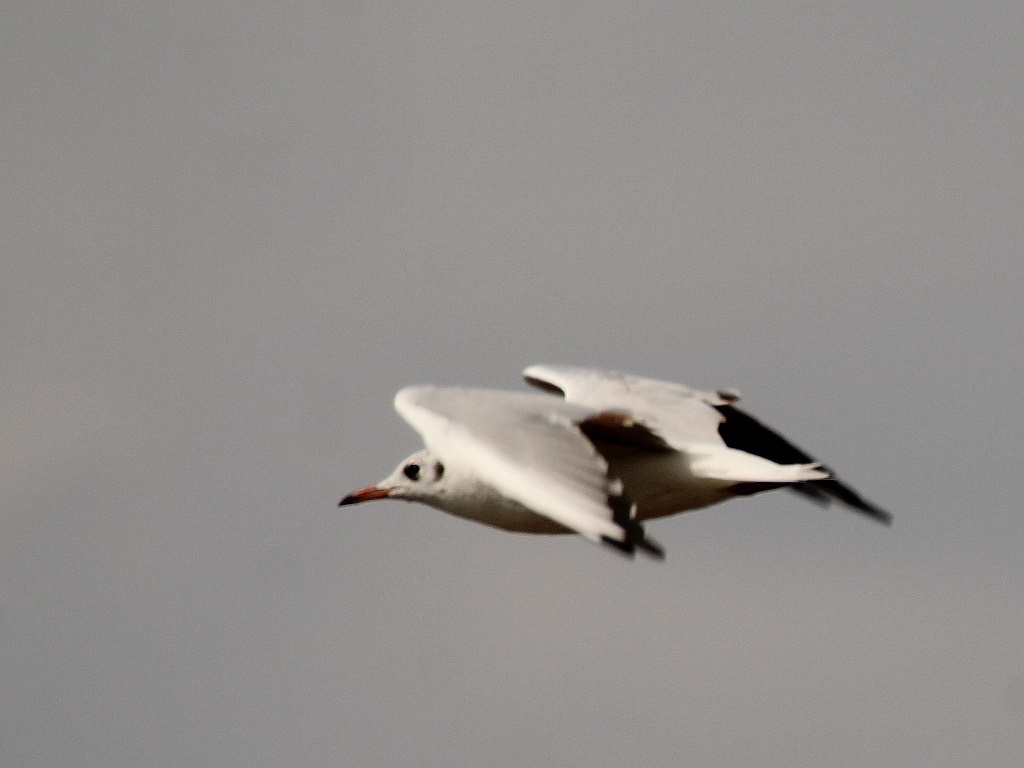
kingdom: Animalia
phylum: Chordata
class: Aves
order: Charadriiformes
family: Laridae
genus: Chroicocephalus
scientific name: Chroicocephalus ridibundus
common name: Black-headed gull
